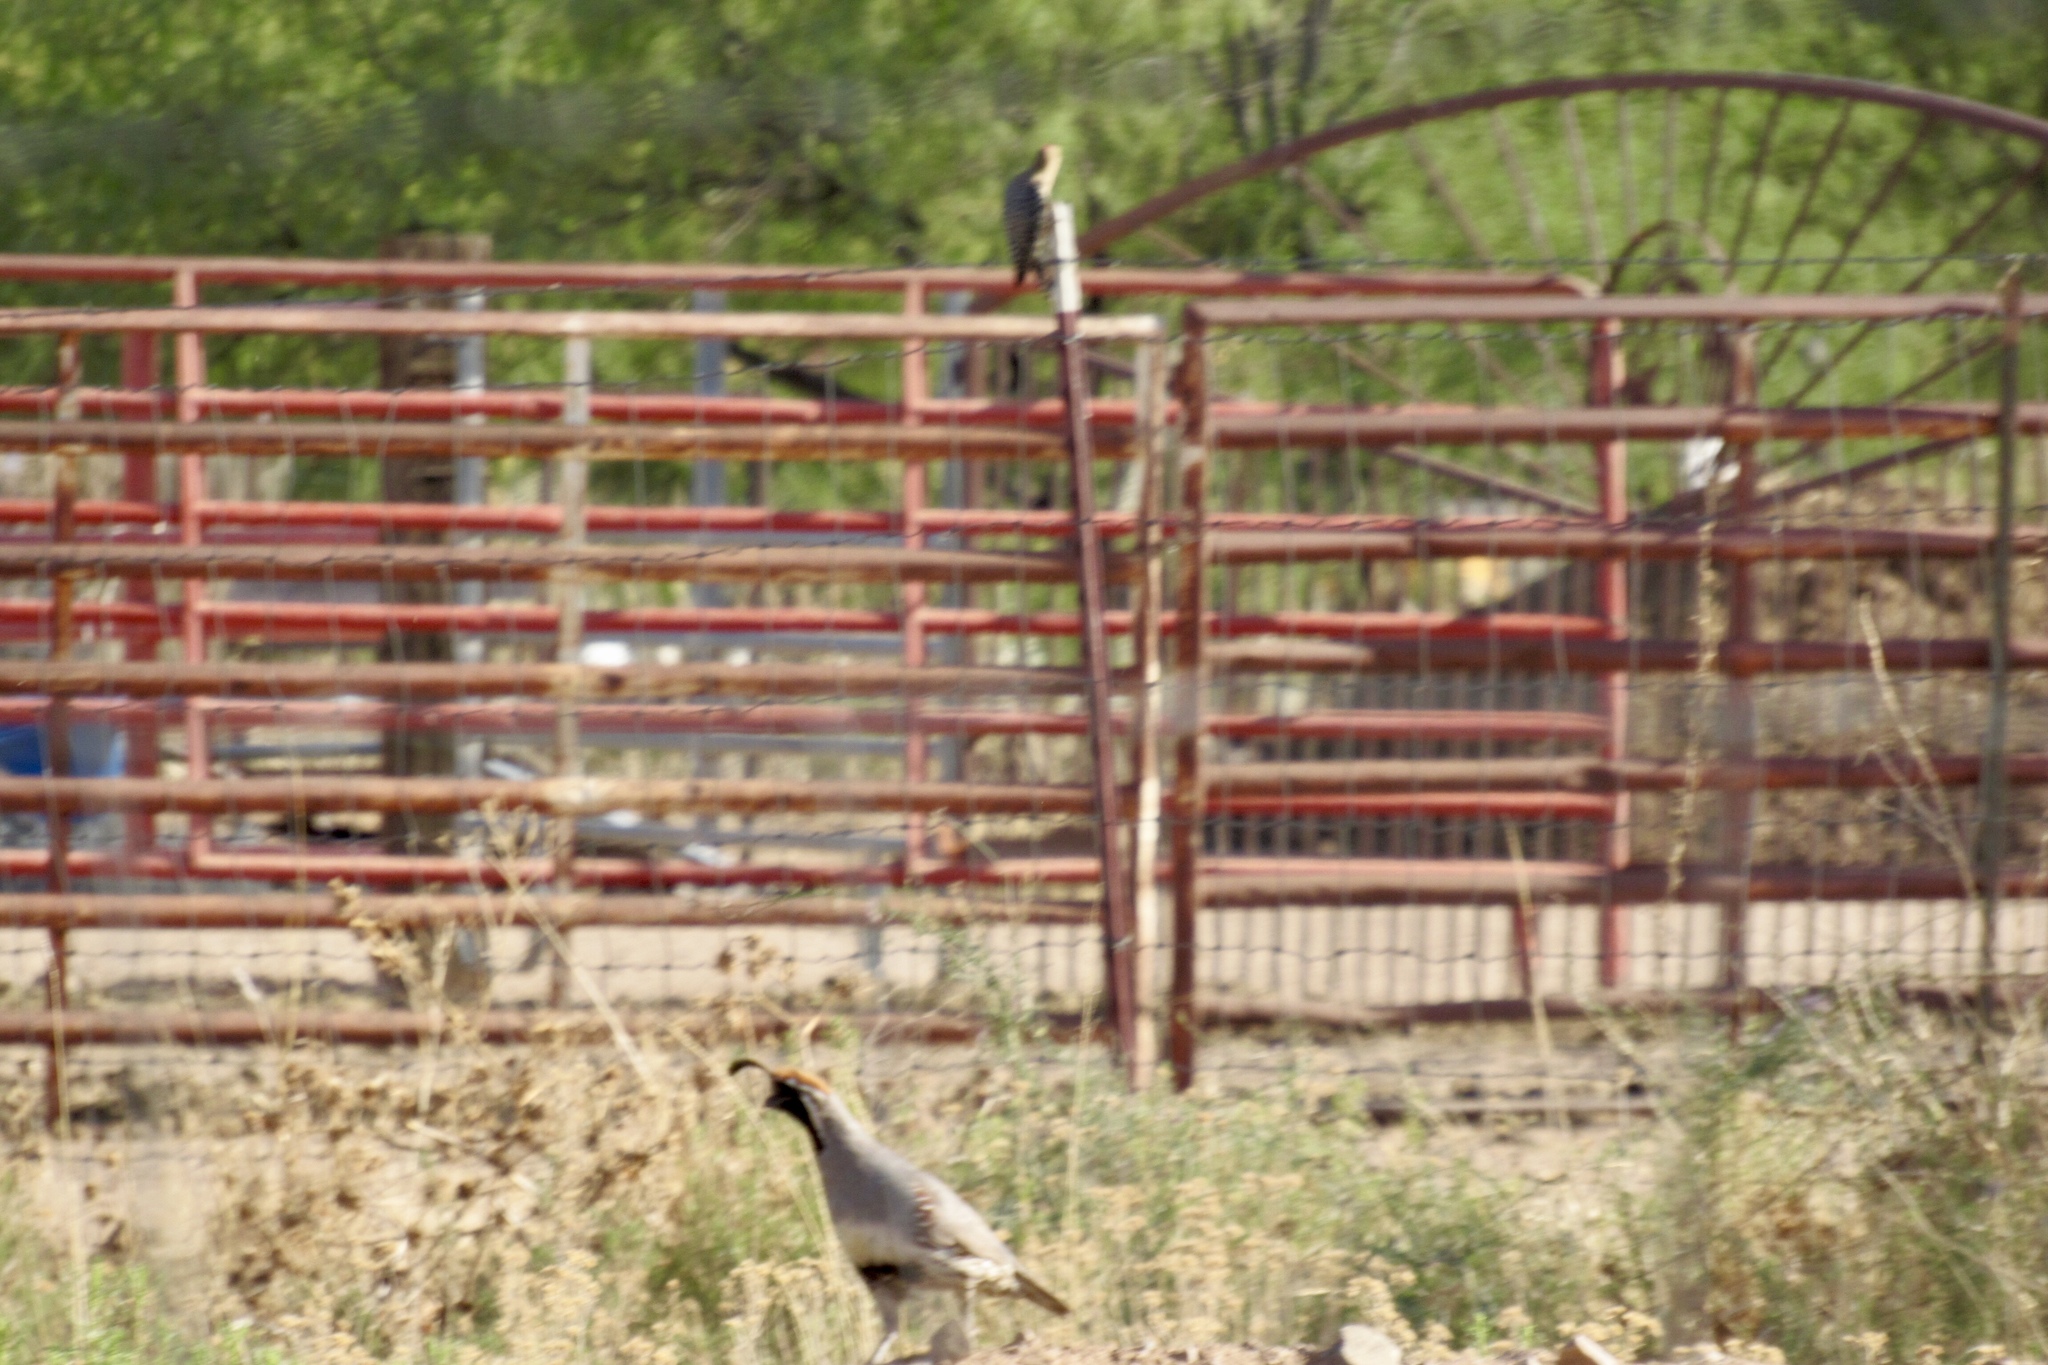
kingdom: Animalia
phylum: Chordata
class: Aves
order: Galliformes
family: Odontophoridae
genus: Callipepla
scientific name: Callipepla gambelii
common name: Gambel's quail
